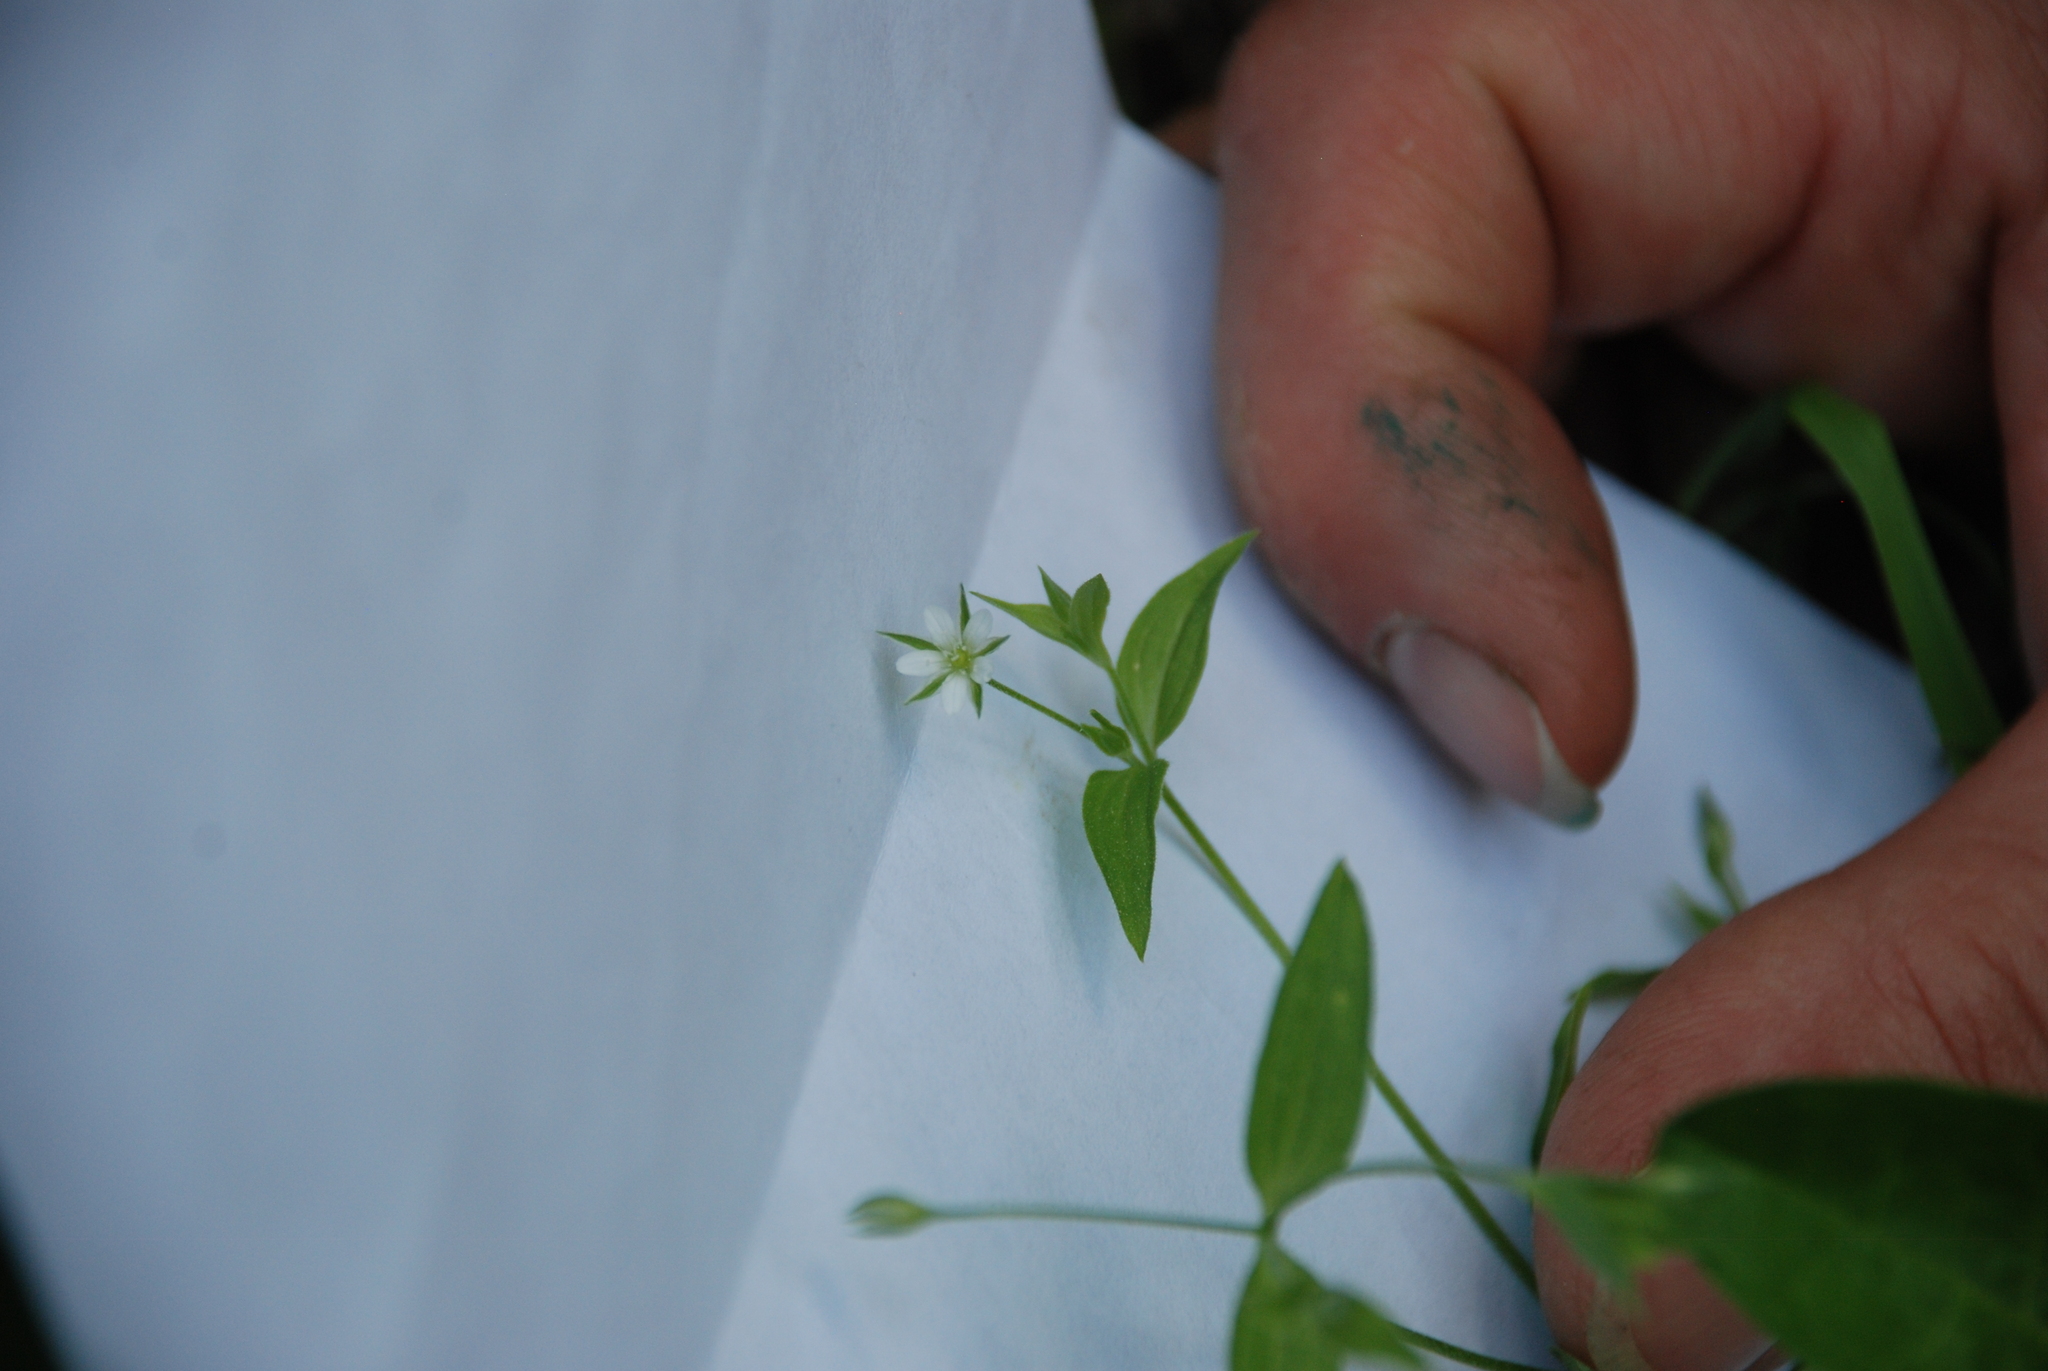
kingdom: Plantae
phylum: Tracheophyta
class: Magnoliopsida
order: Caryophyllales
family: Caryophyllaceae
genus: Moehringia
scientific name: Moehringia trinervia
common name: Three-nerved sandwort
